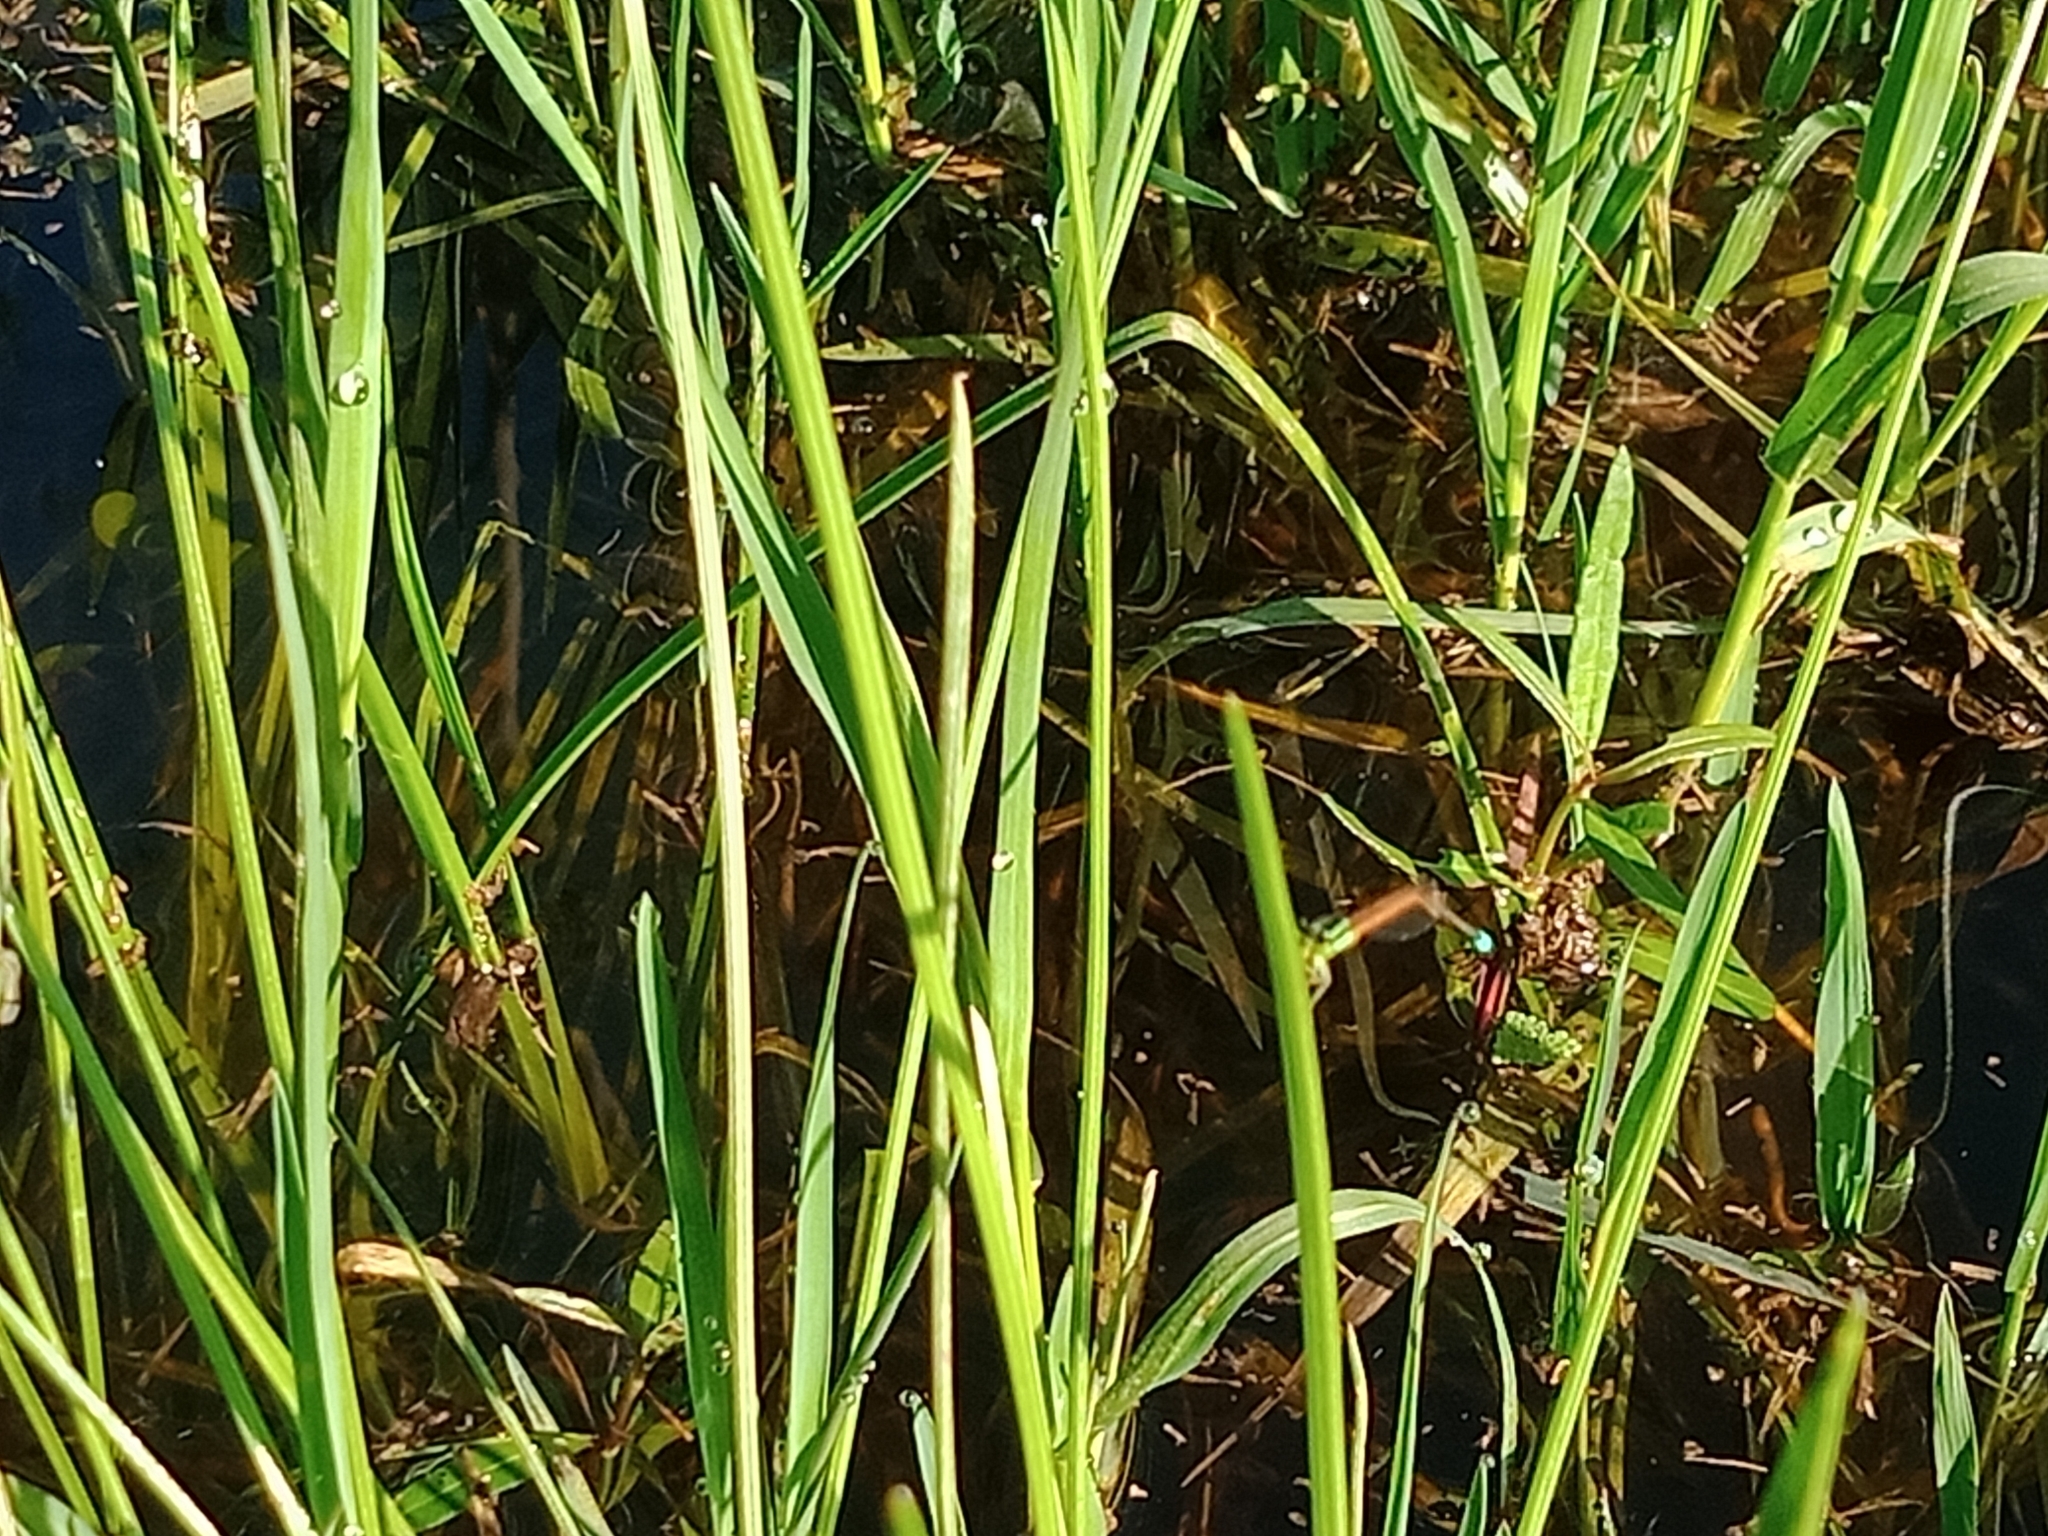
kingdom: Animalia
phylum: Arthropoda
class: Insecta
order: Odonata
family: Coenagrionidae
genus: Ischnura
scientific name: Ischnura aurora
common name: Gossamer damselfly
